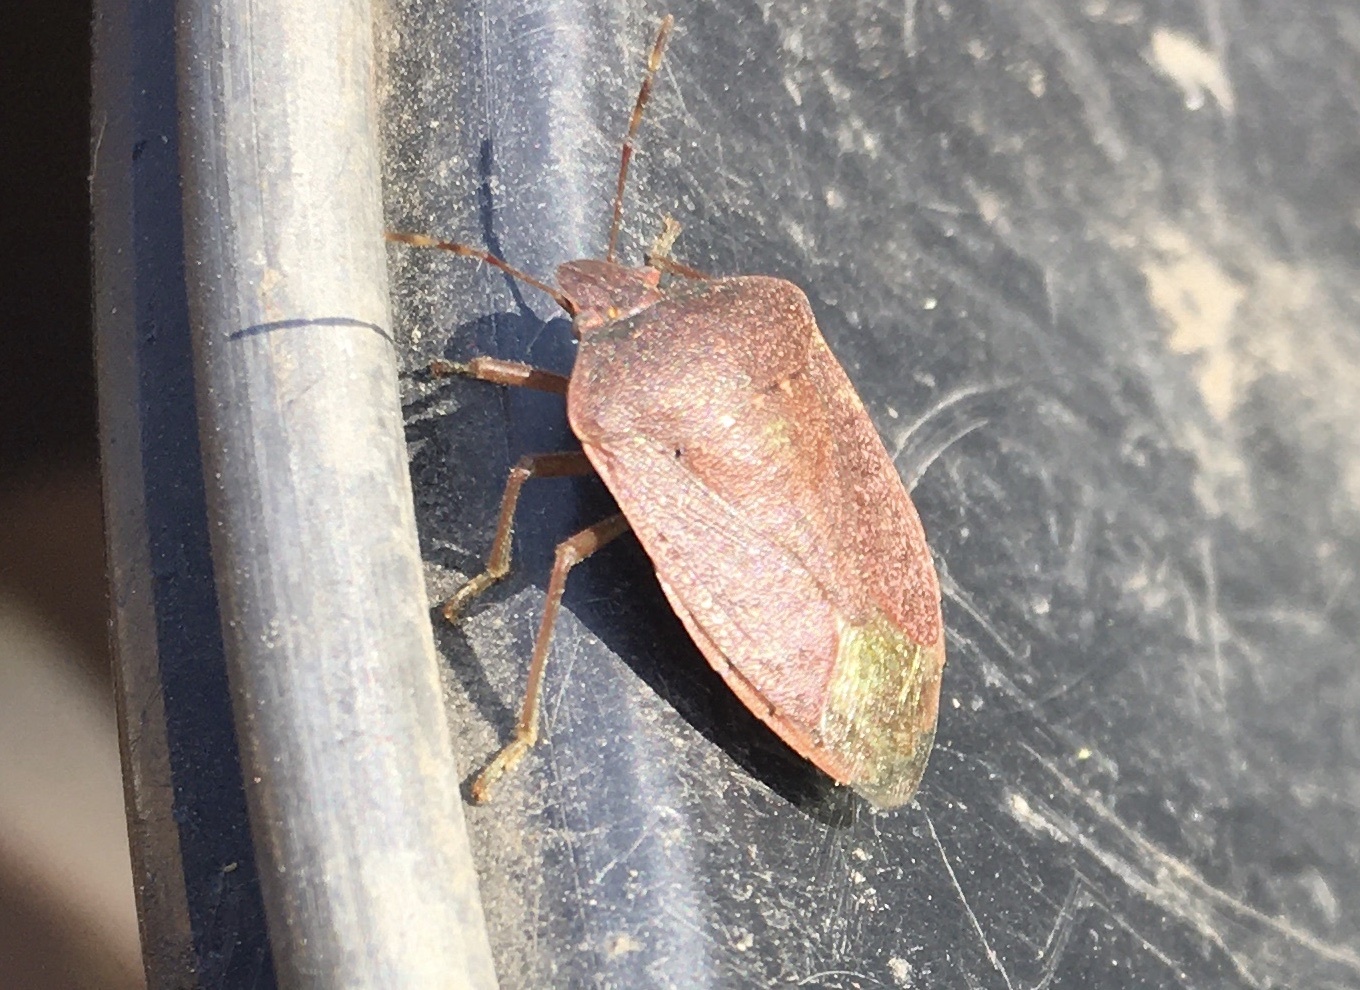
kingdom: Animalia
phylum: Arthropoda
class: Insecta
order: Hemiptera
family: Pentatomidae
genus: Nezara
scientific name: Nezara viridula
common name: Southern green stink bug
